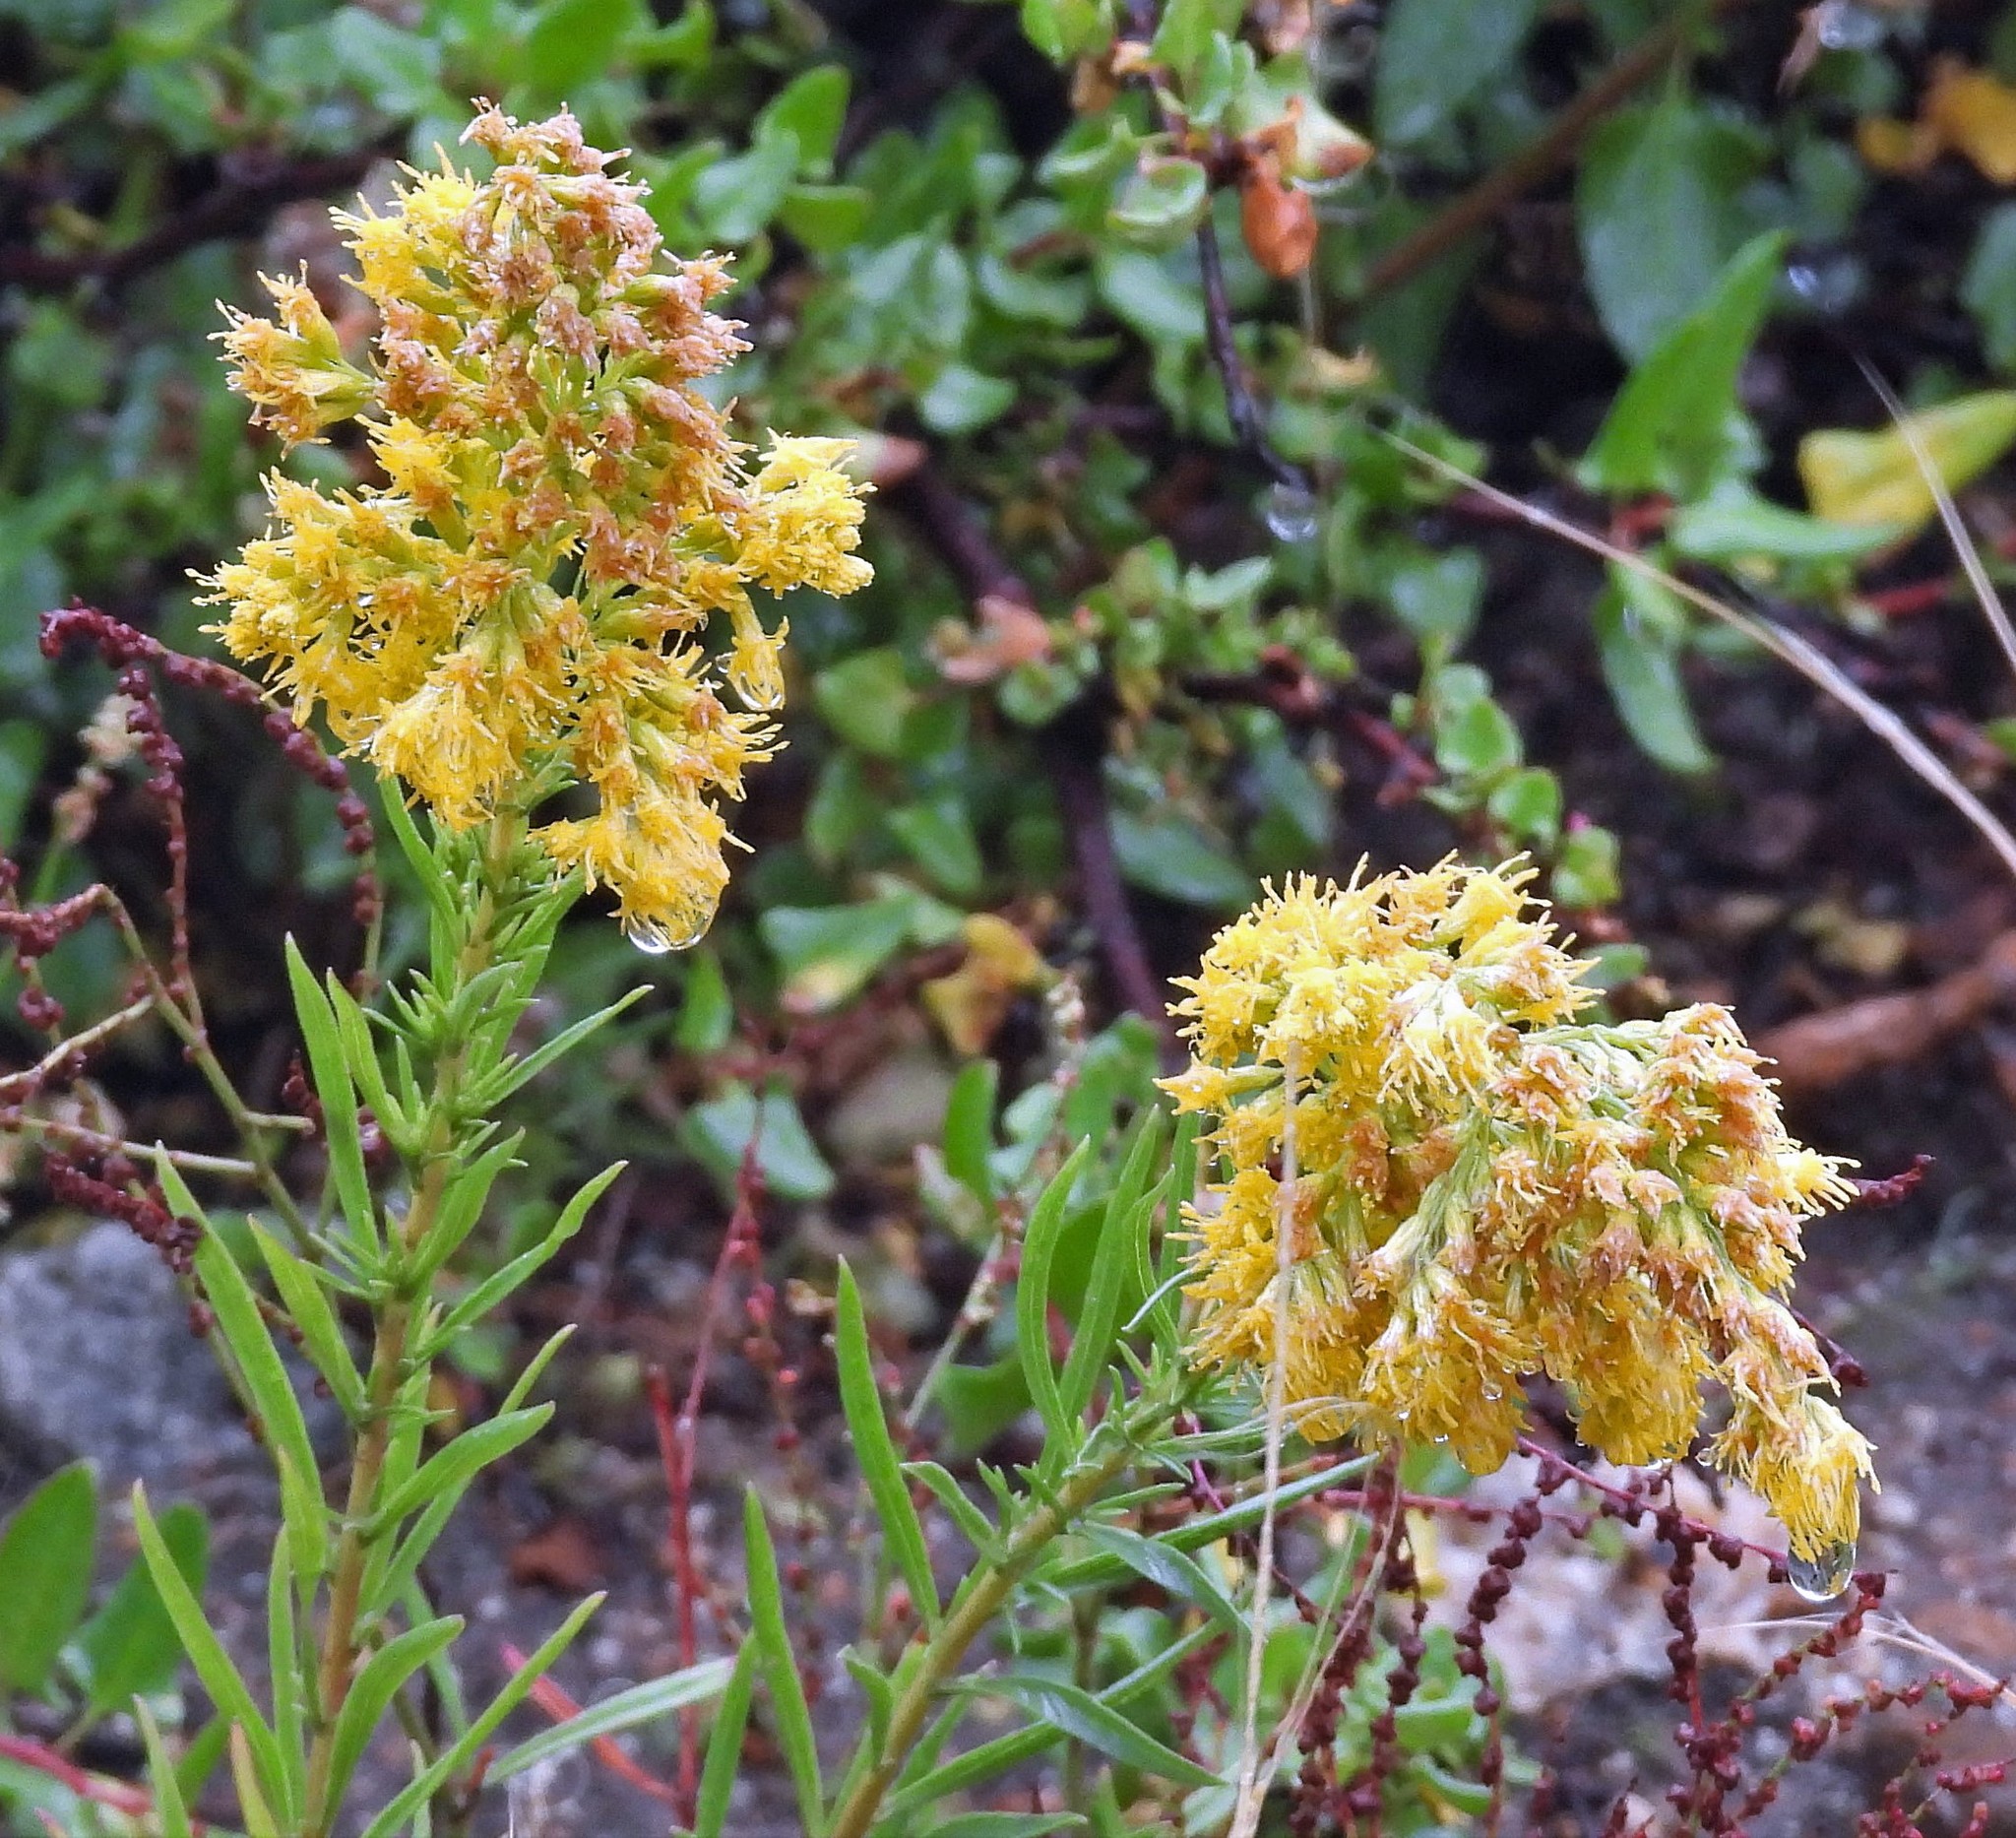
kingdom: Plantae
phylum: Tracheophyta
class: Magnoliopsida
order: Asterales
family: Asteraceae
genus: Solidago
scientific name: Solidago chilensis
